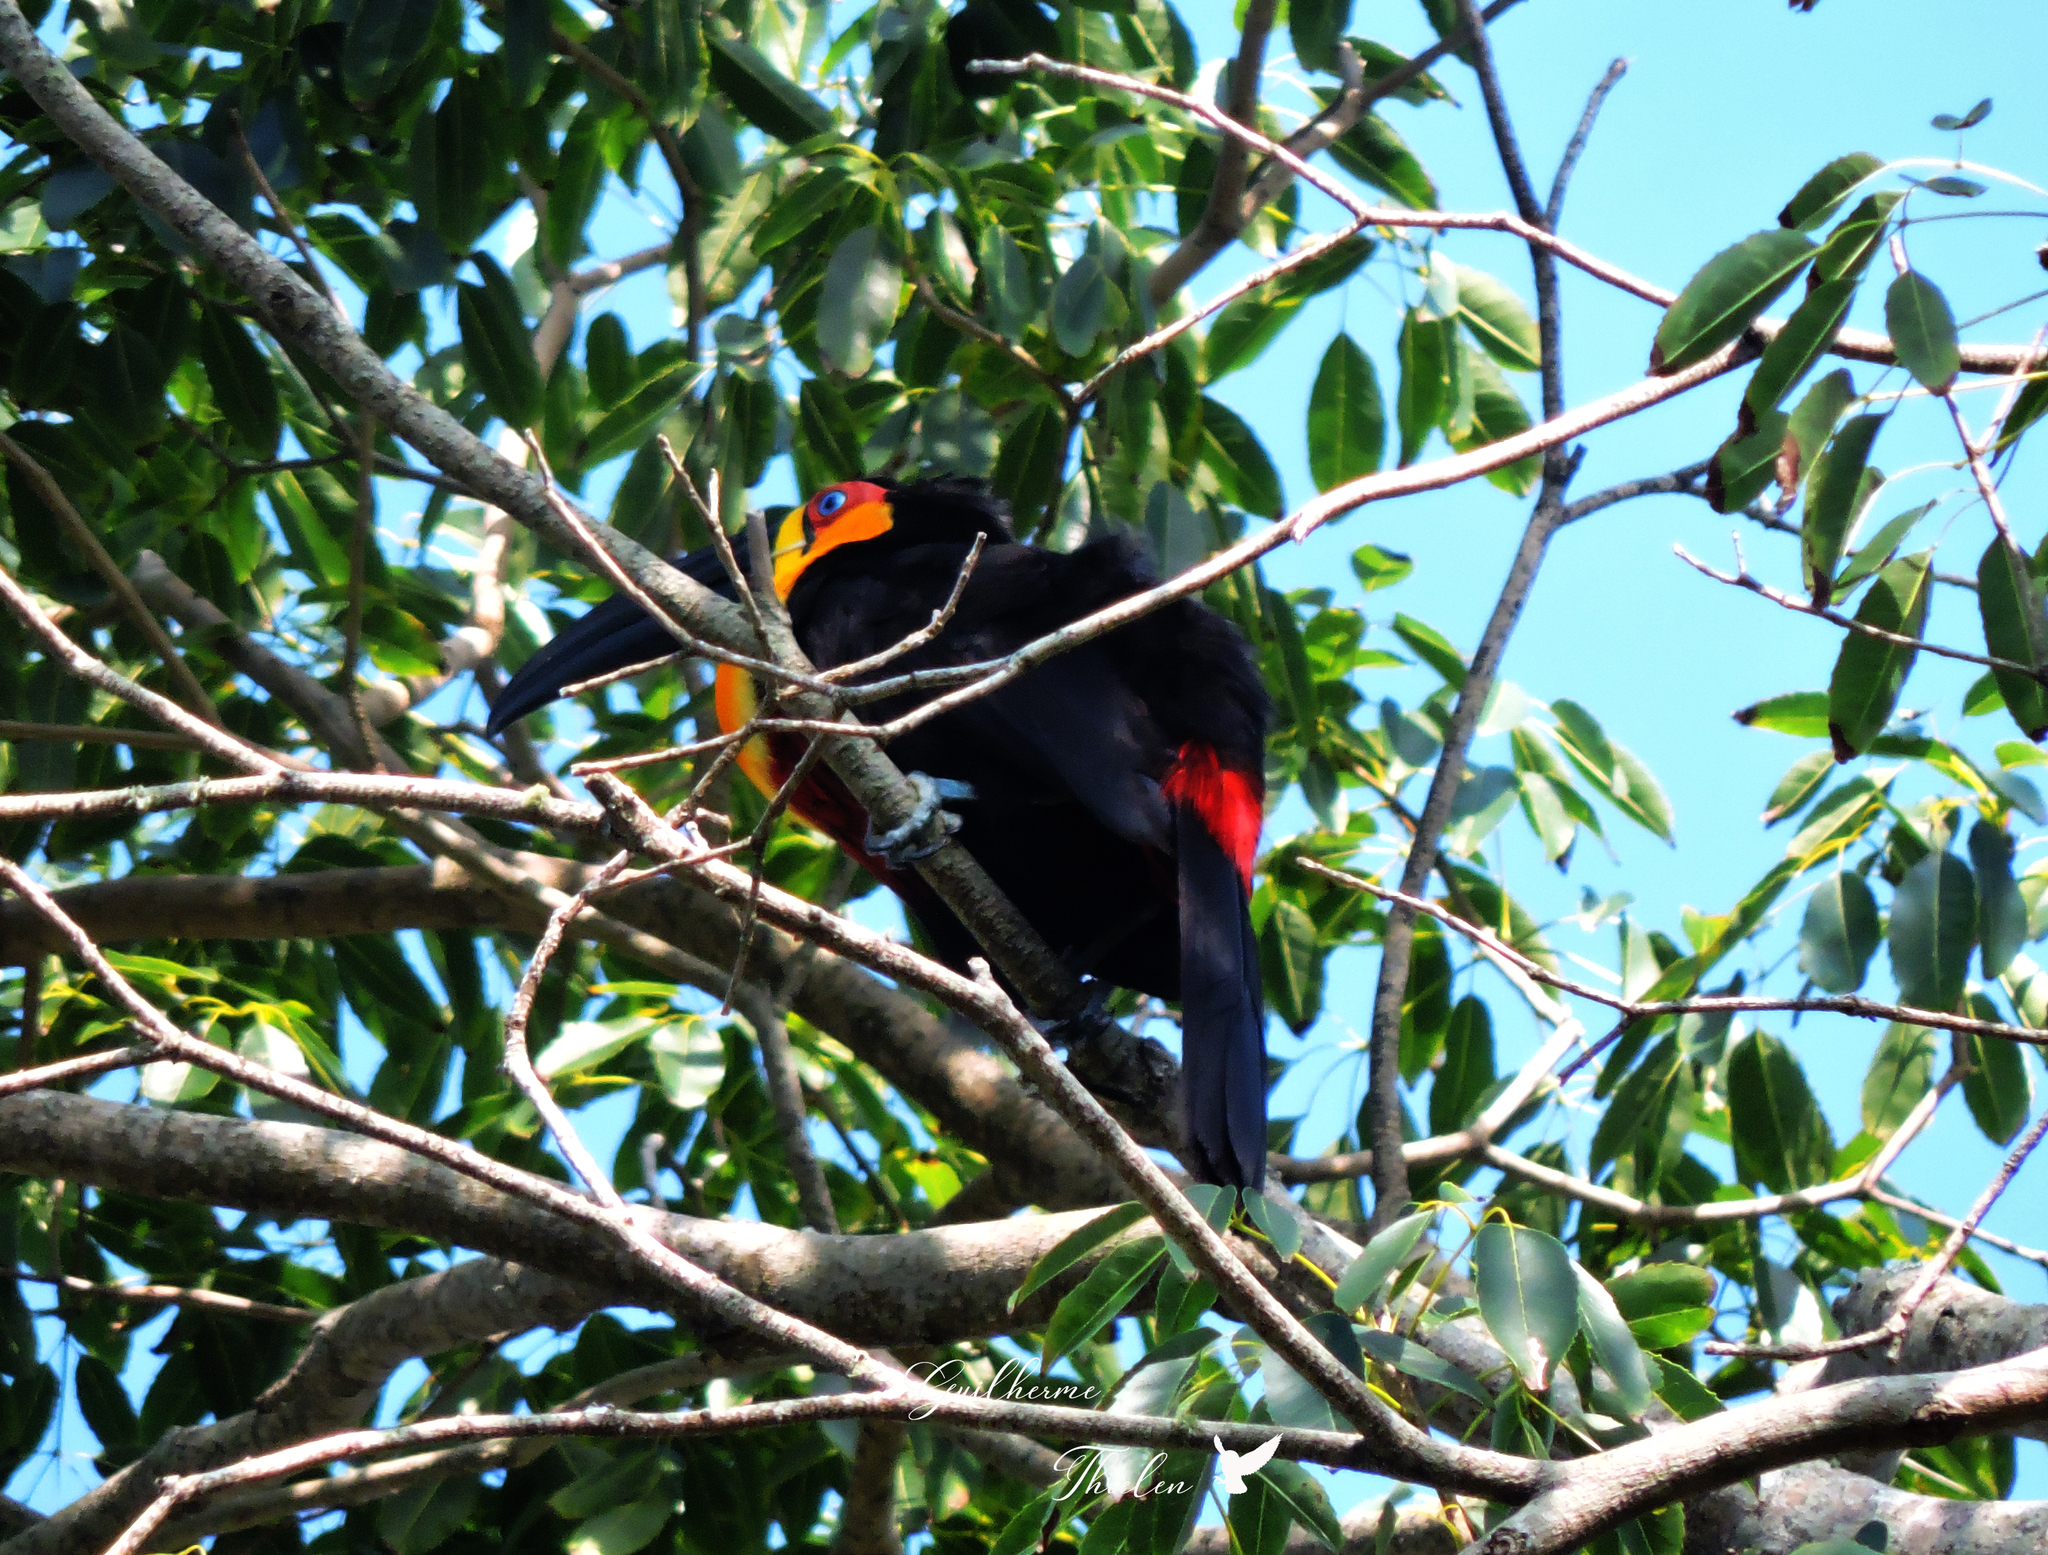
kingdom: Animalia
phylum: Chordata
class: Aves
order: Piciformes
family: Ramphastidae
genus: Ramphastos
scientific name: Ramphastos vitellinus
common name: Channel-billed toucan
